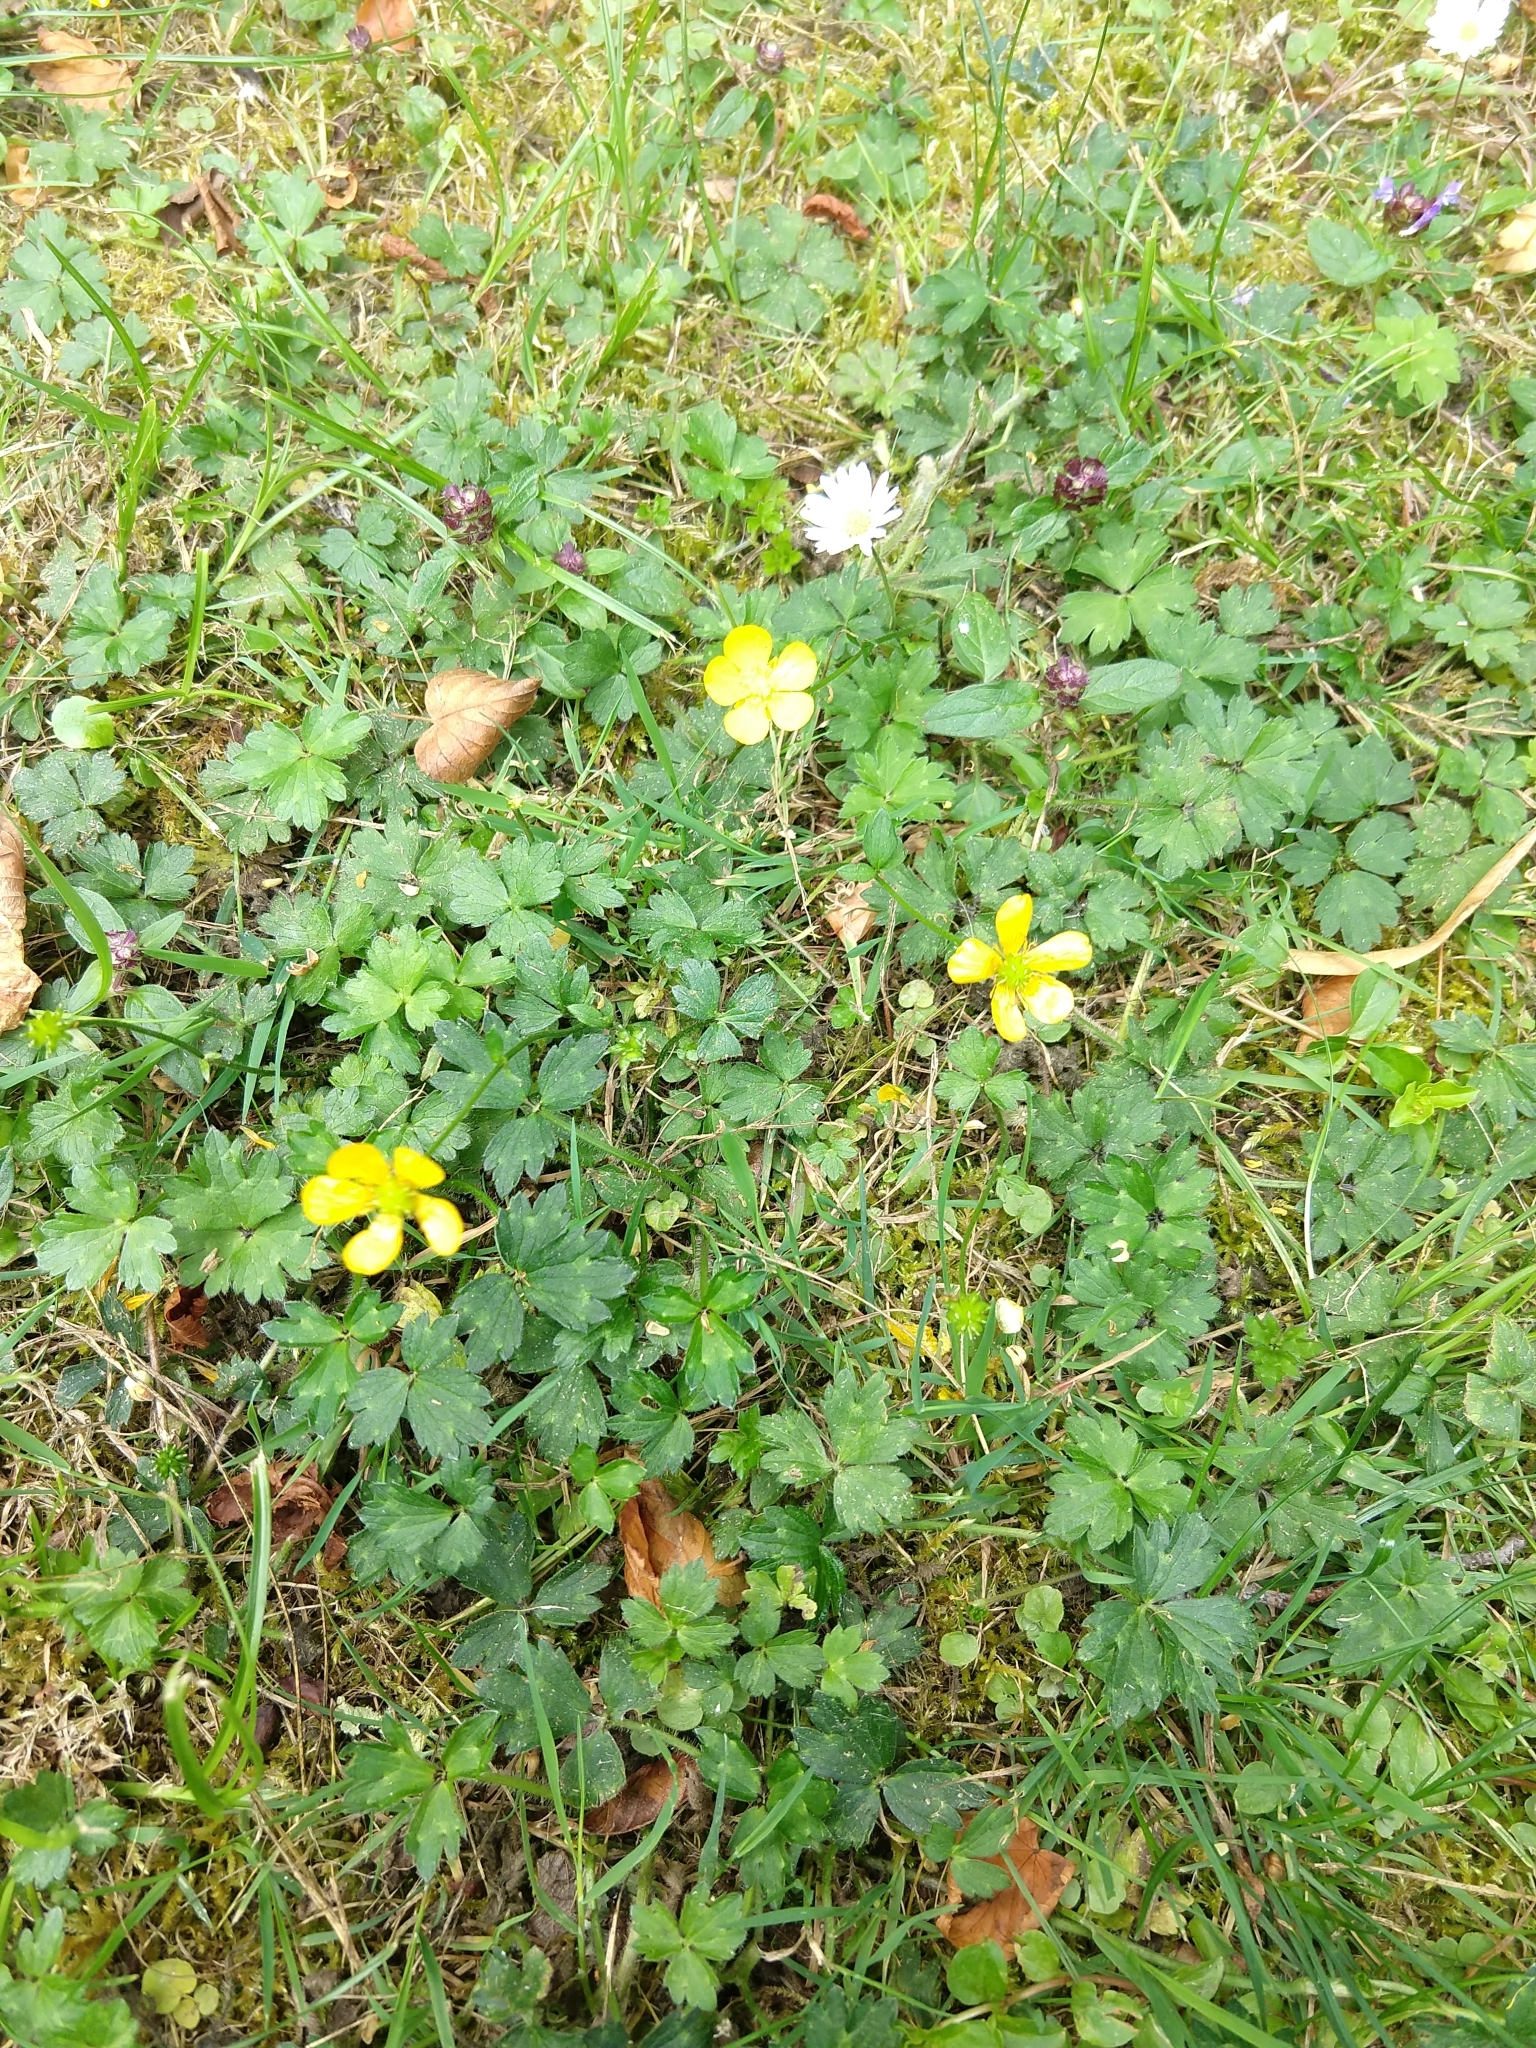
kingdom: Plantae
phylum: Tracheophyta
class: Magnoliopsida
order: Ranunculales
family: Ranunculaceae
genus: Ranunculus
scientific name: Ranunculus repens
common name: Creeping buttercup
